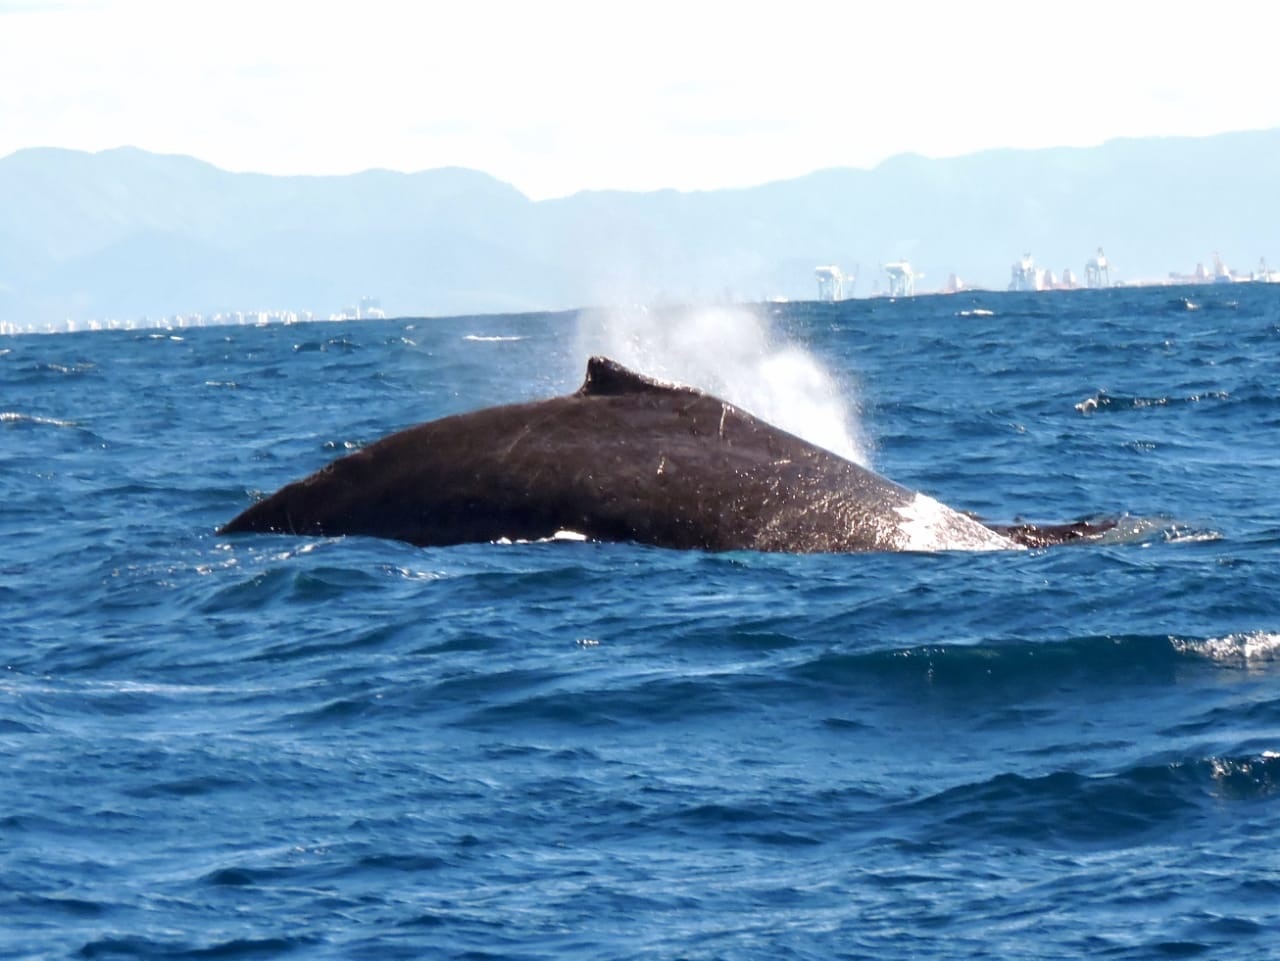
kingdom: Animalia
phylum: Chordata
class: Mammalia
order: Cetacea
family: Balaenopteridae
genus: Megaptera
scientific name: Megaptera novaeangliae
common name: Humpback whale
